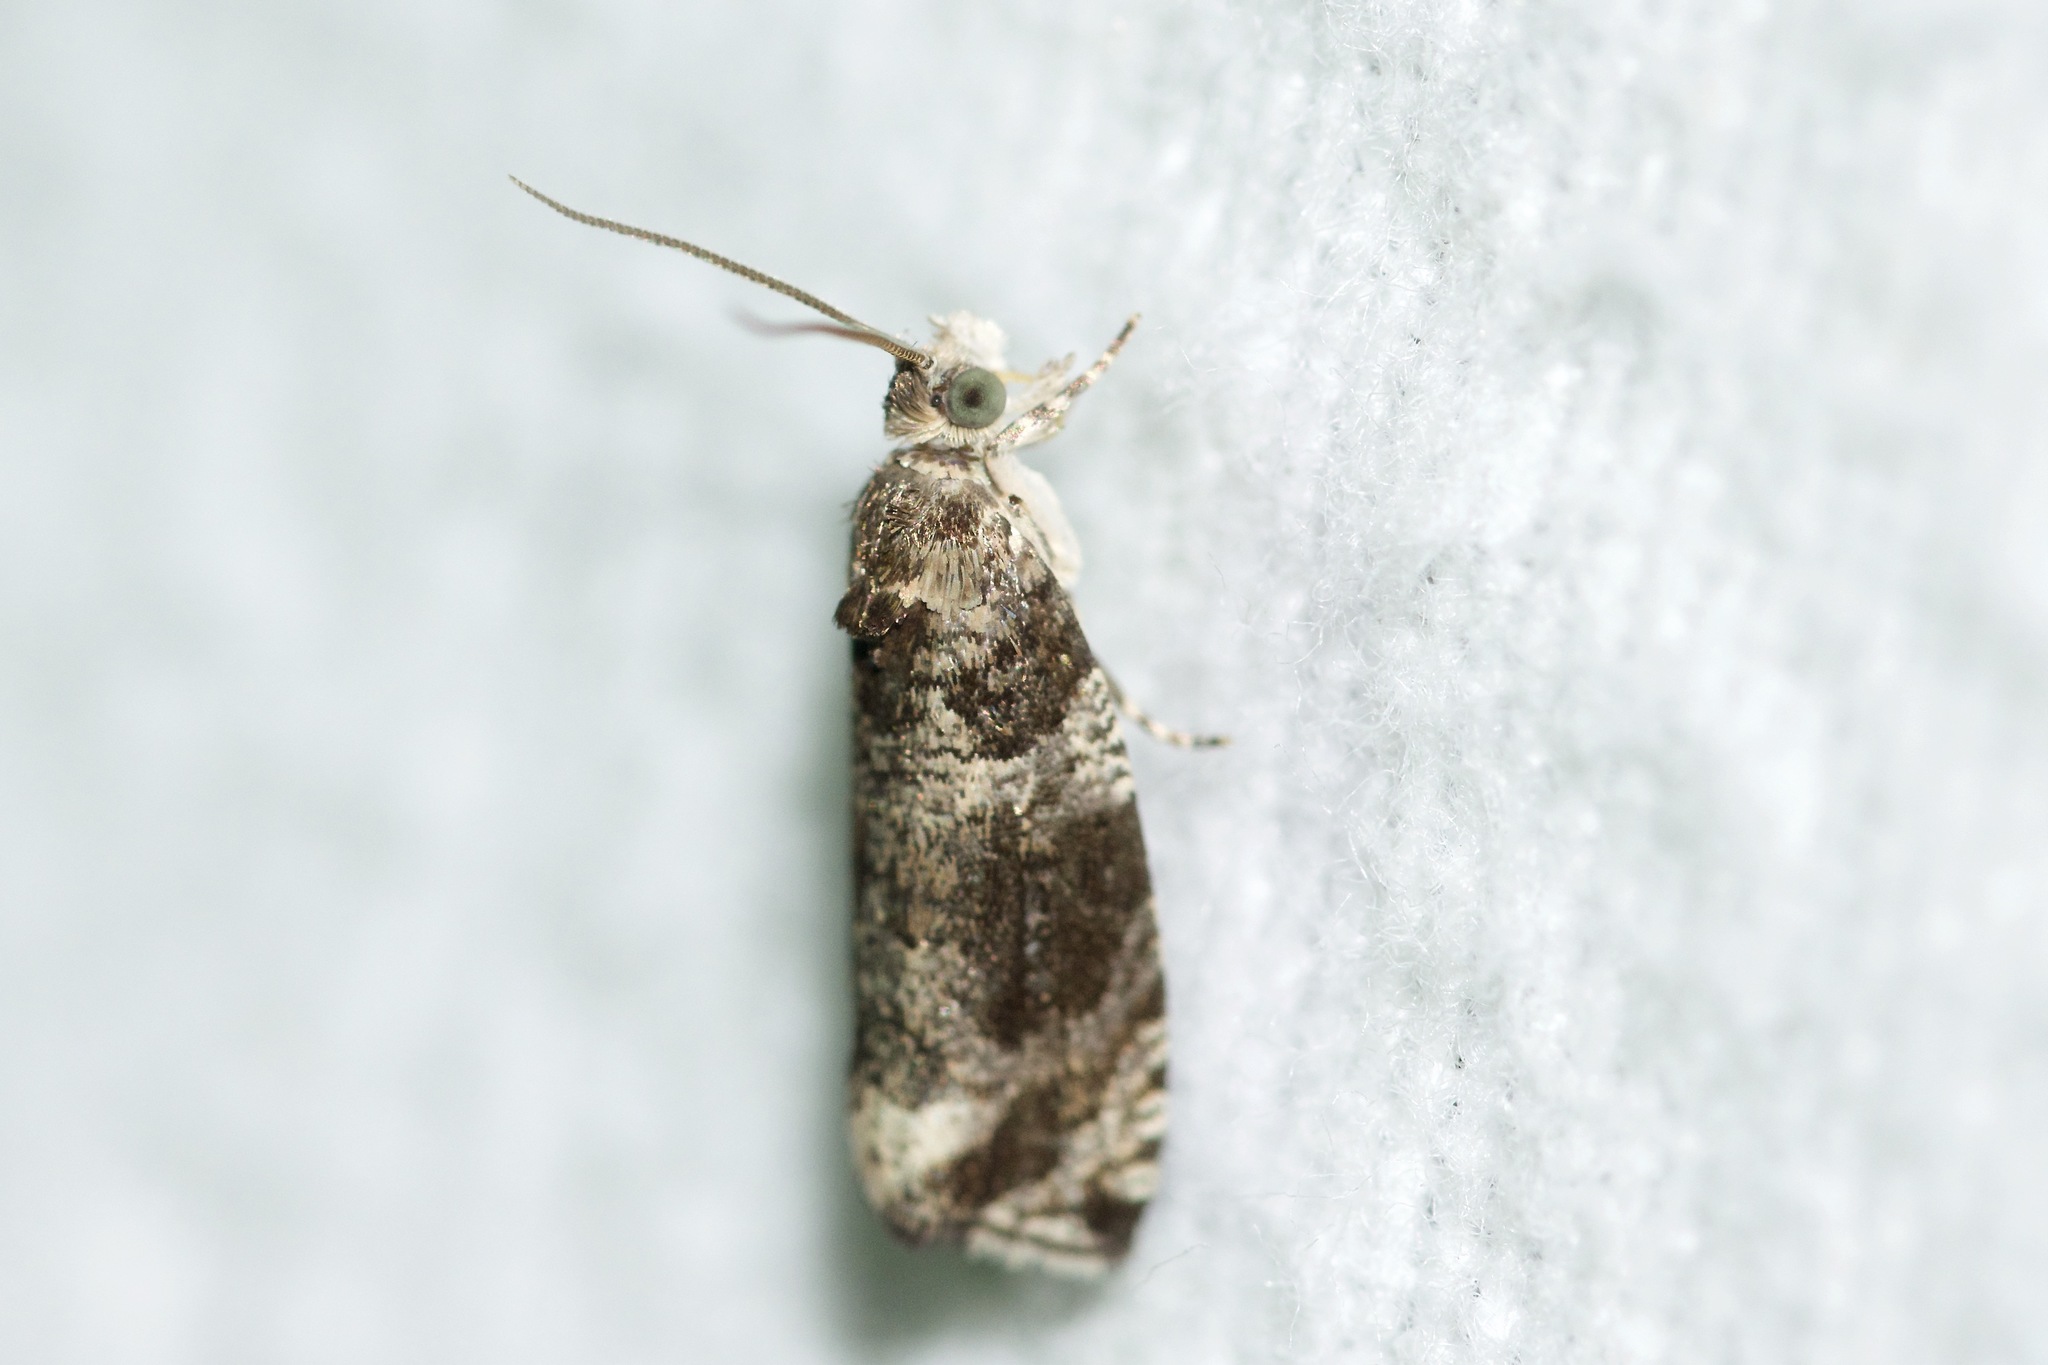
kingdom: Animalia
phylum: Arthropoda
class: Insecta
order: Lepidoptera
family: Tortricidae
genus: Olethreutes
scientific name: Olethreutes appendiceum
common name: Serviceberry leafroller
